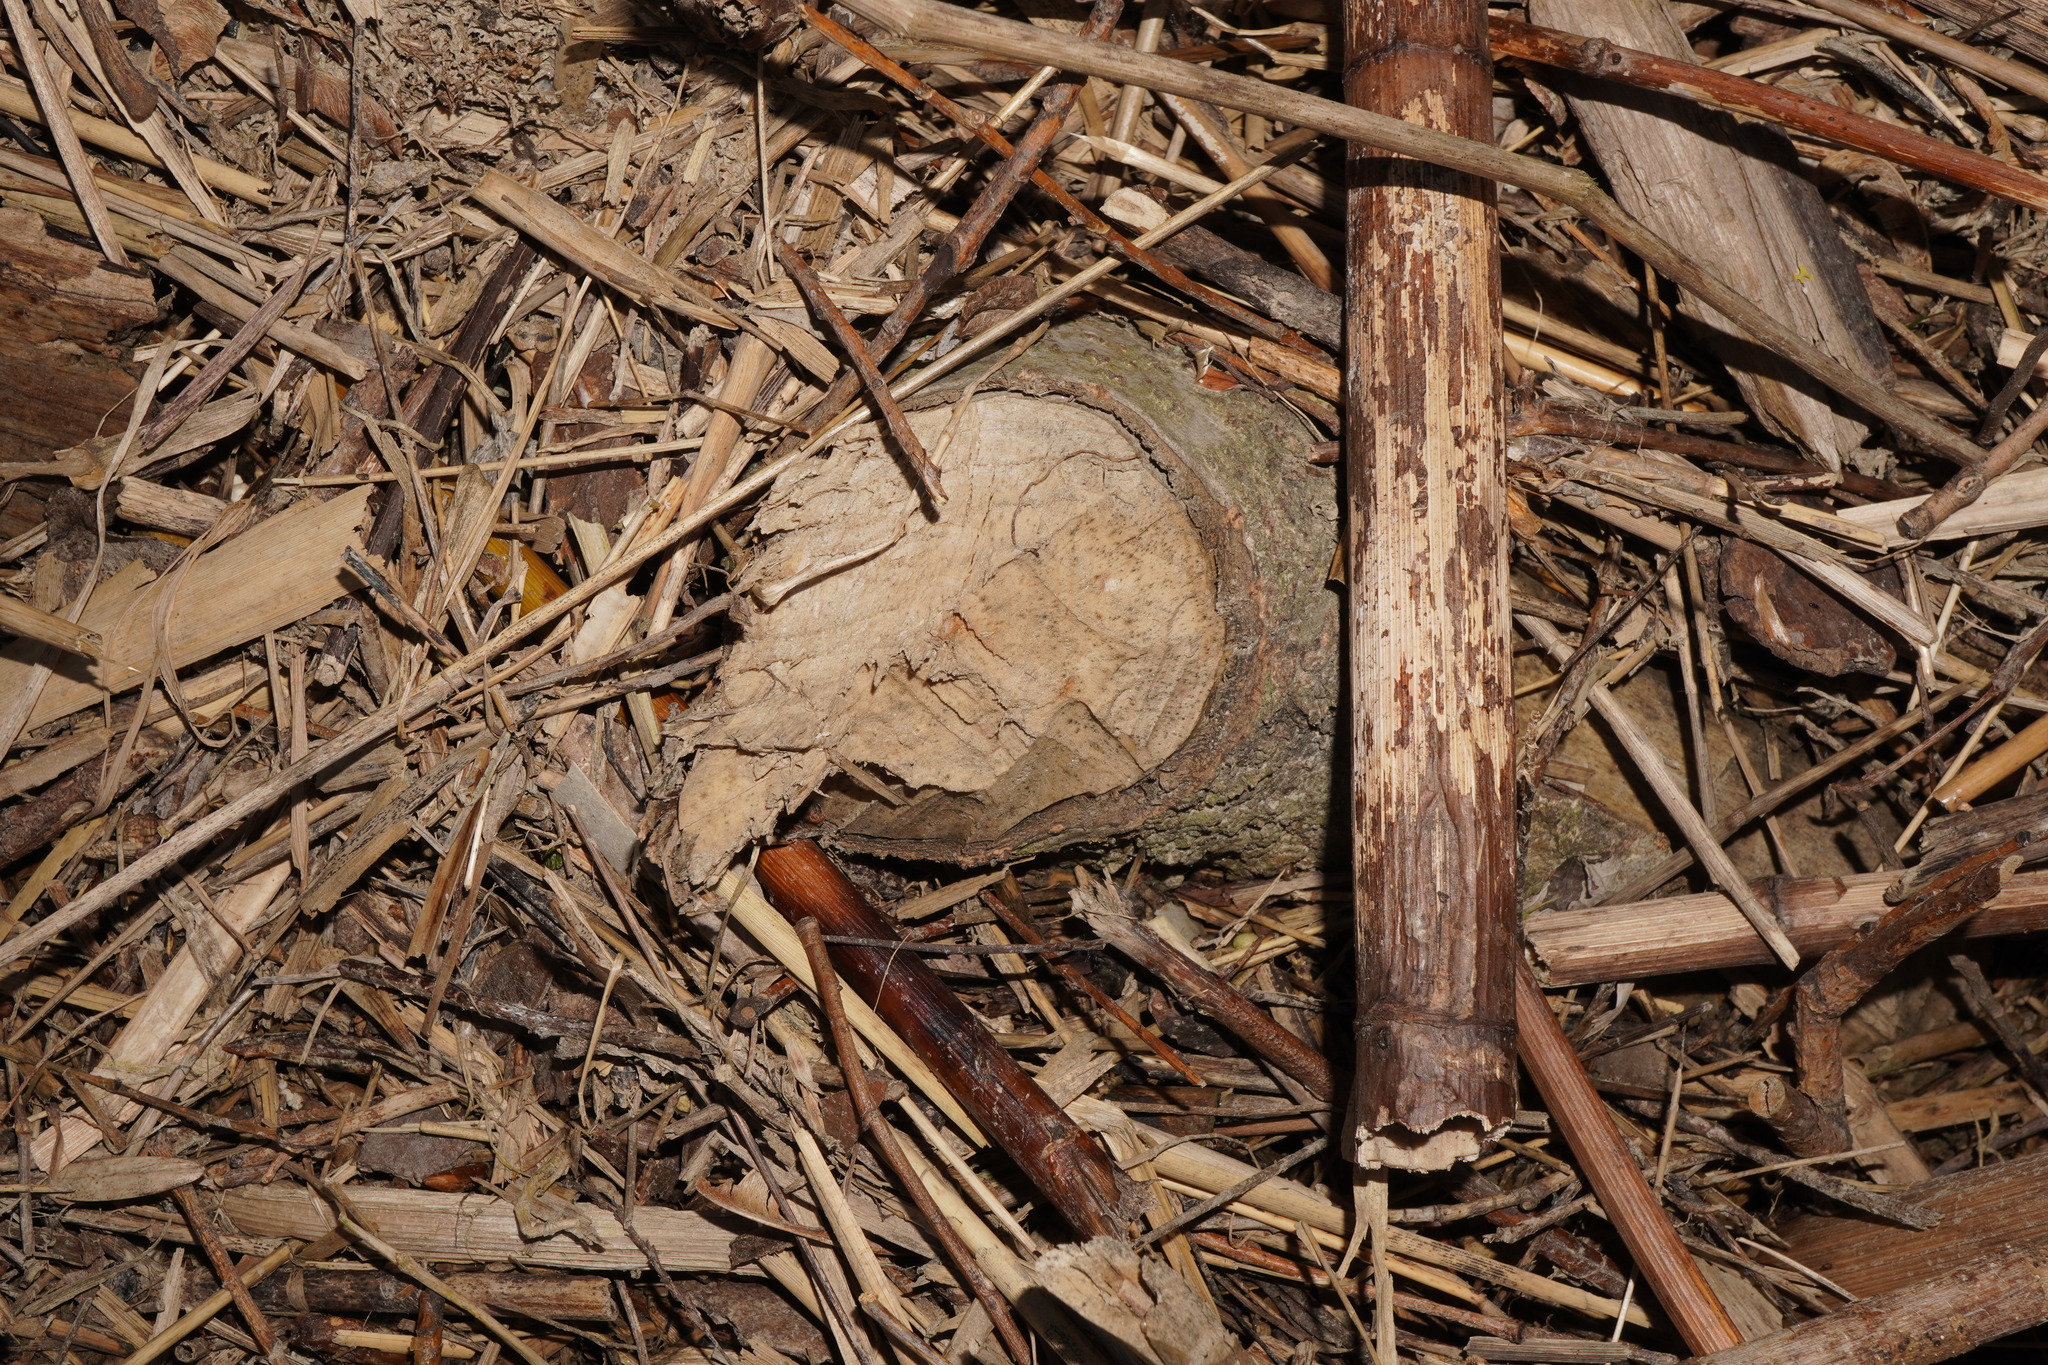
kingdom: Animalia
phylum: Chordata
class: Mammalia
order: Rodentia
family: Castoridae
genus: Castor
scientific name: Castor fiber
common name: Eurasian beaver
